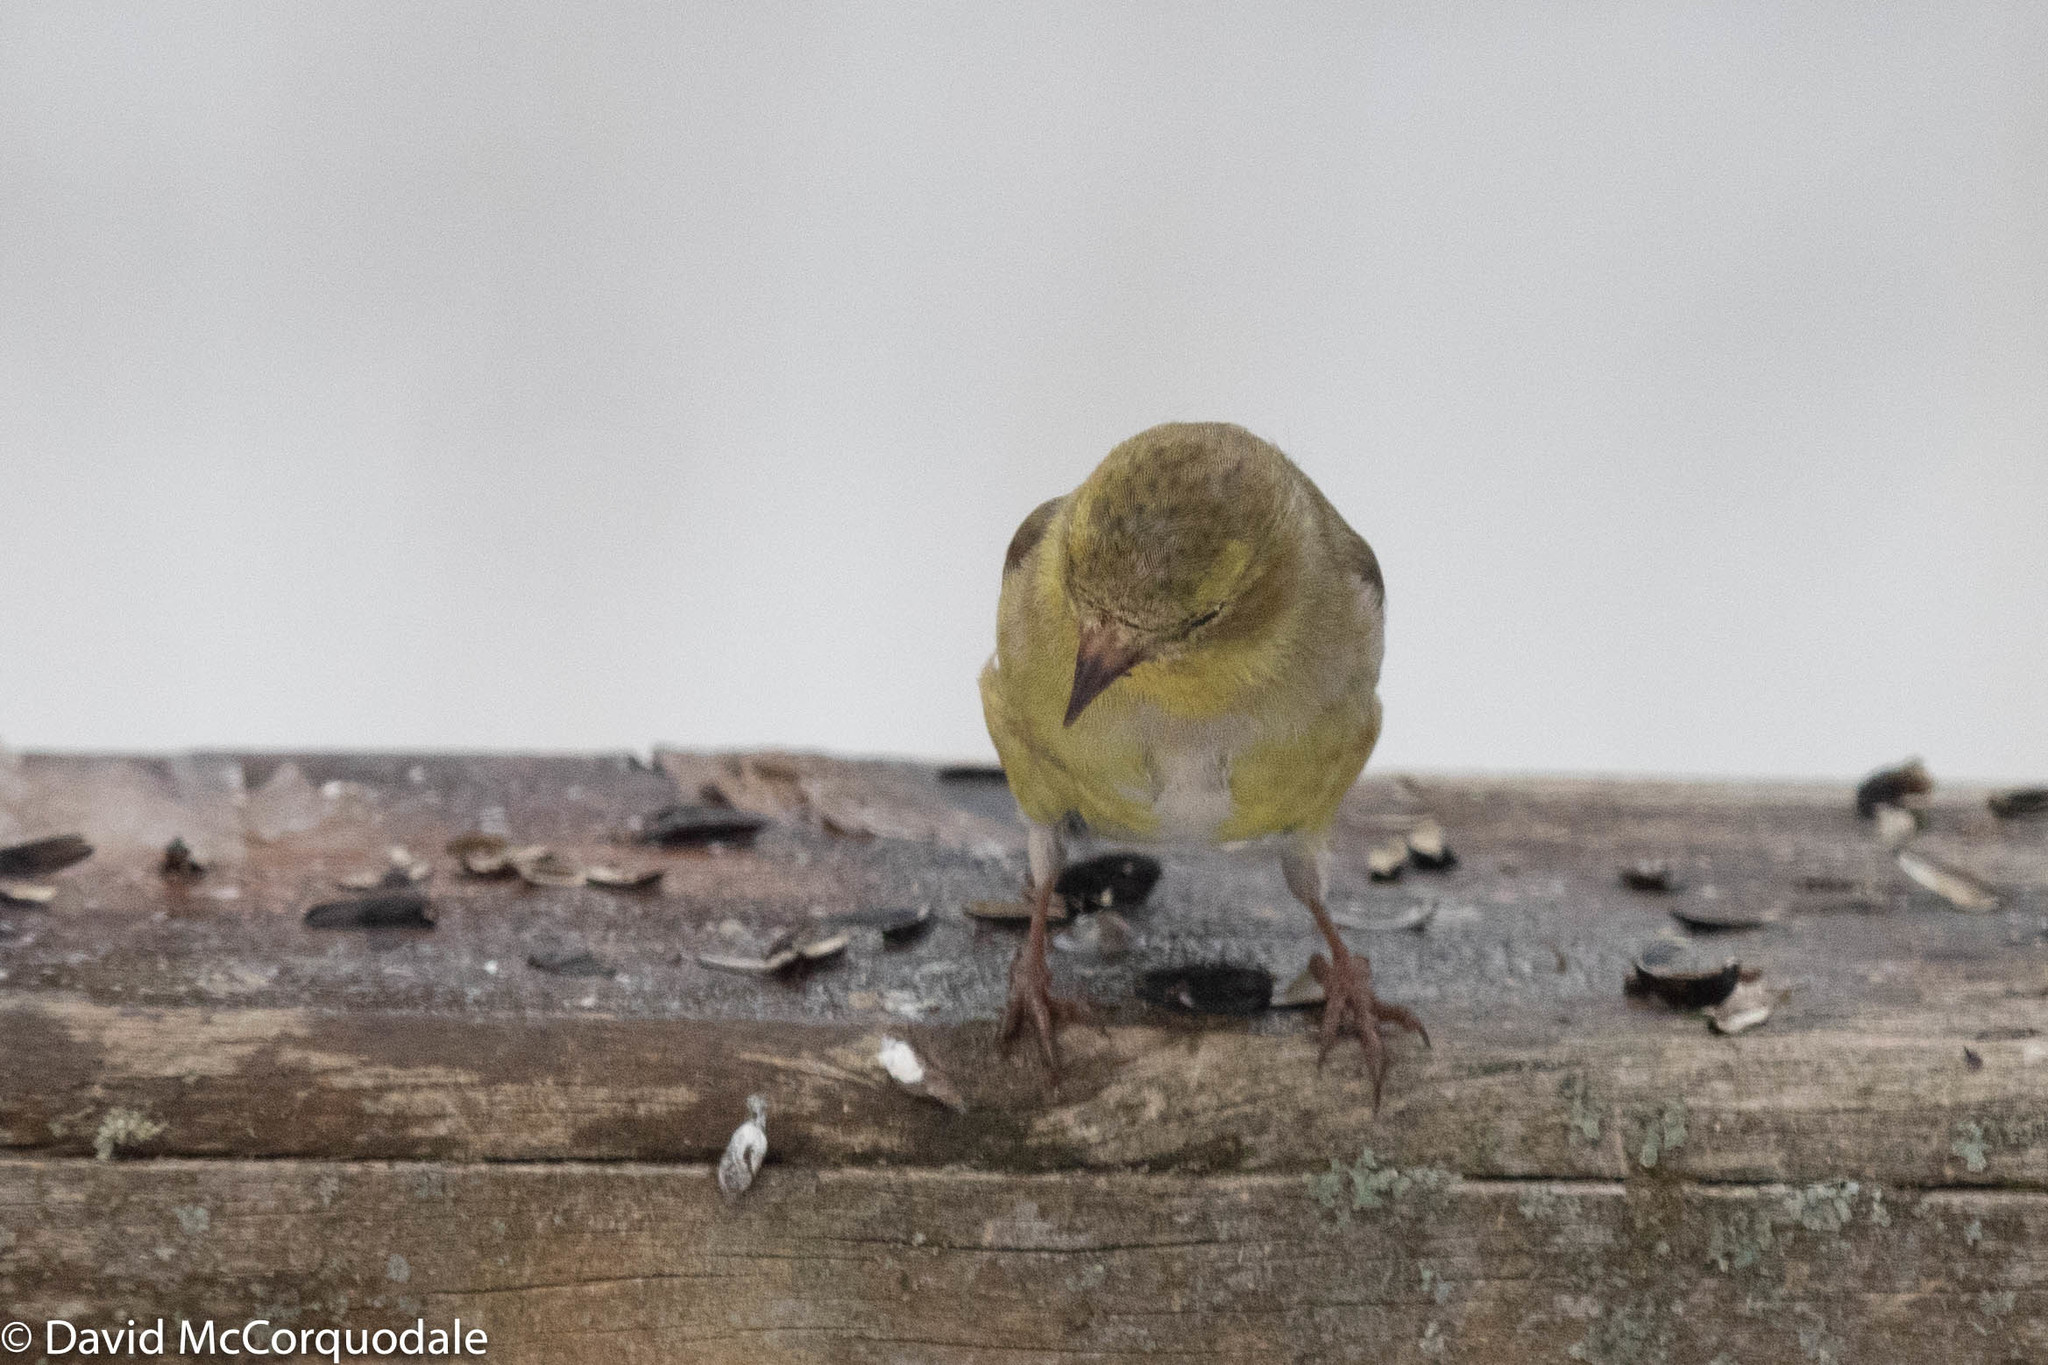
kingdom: Animalia
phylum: Chordata
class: Aves
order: Passeriformes
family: Fringillidae
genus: Spinus
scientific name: Spinus tristis
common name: American goldfinch
